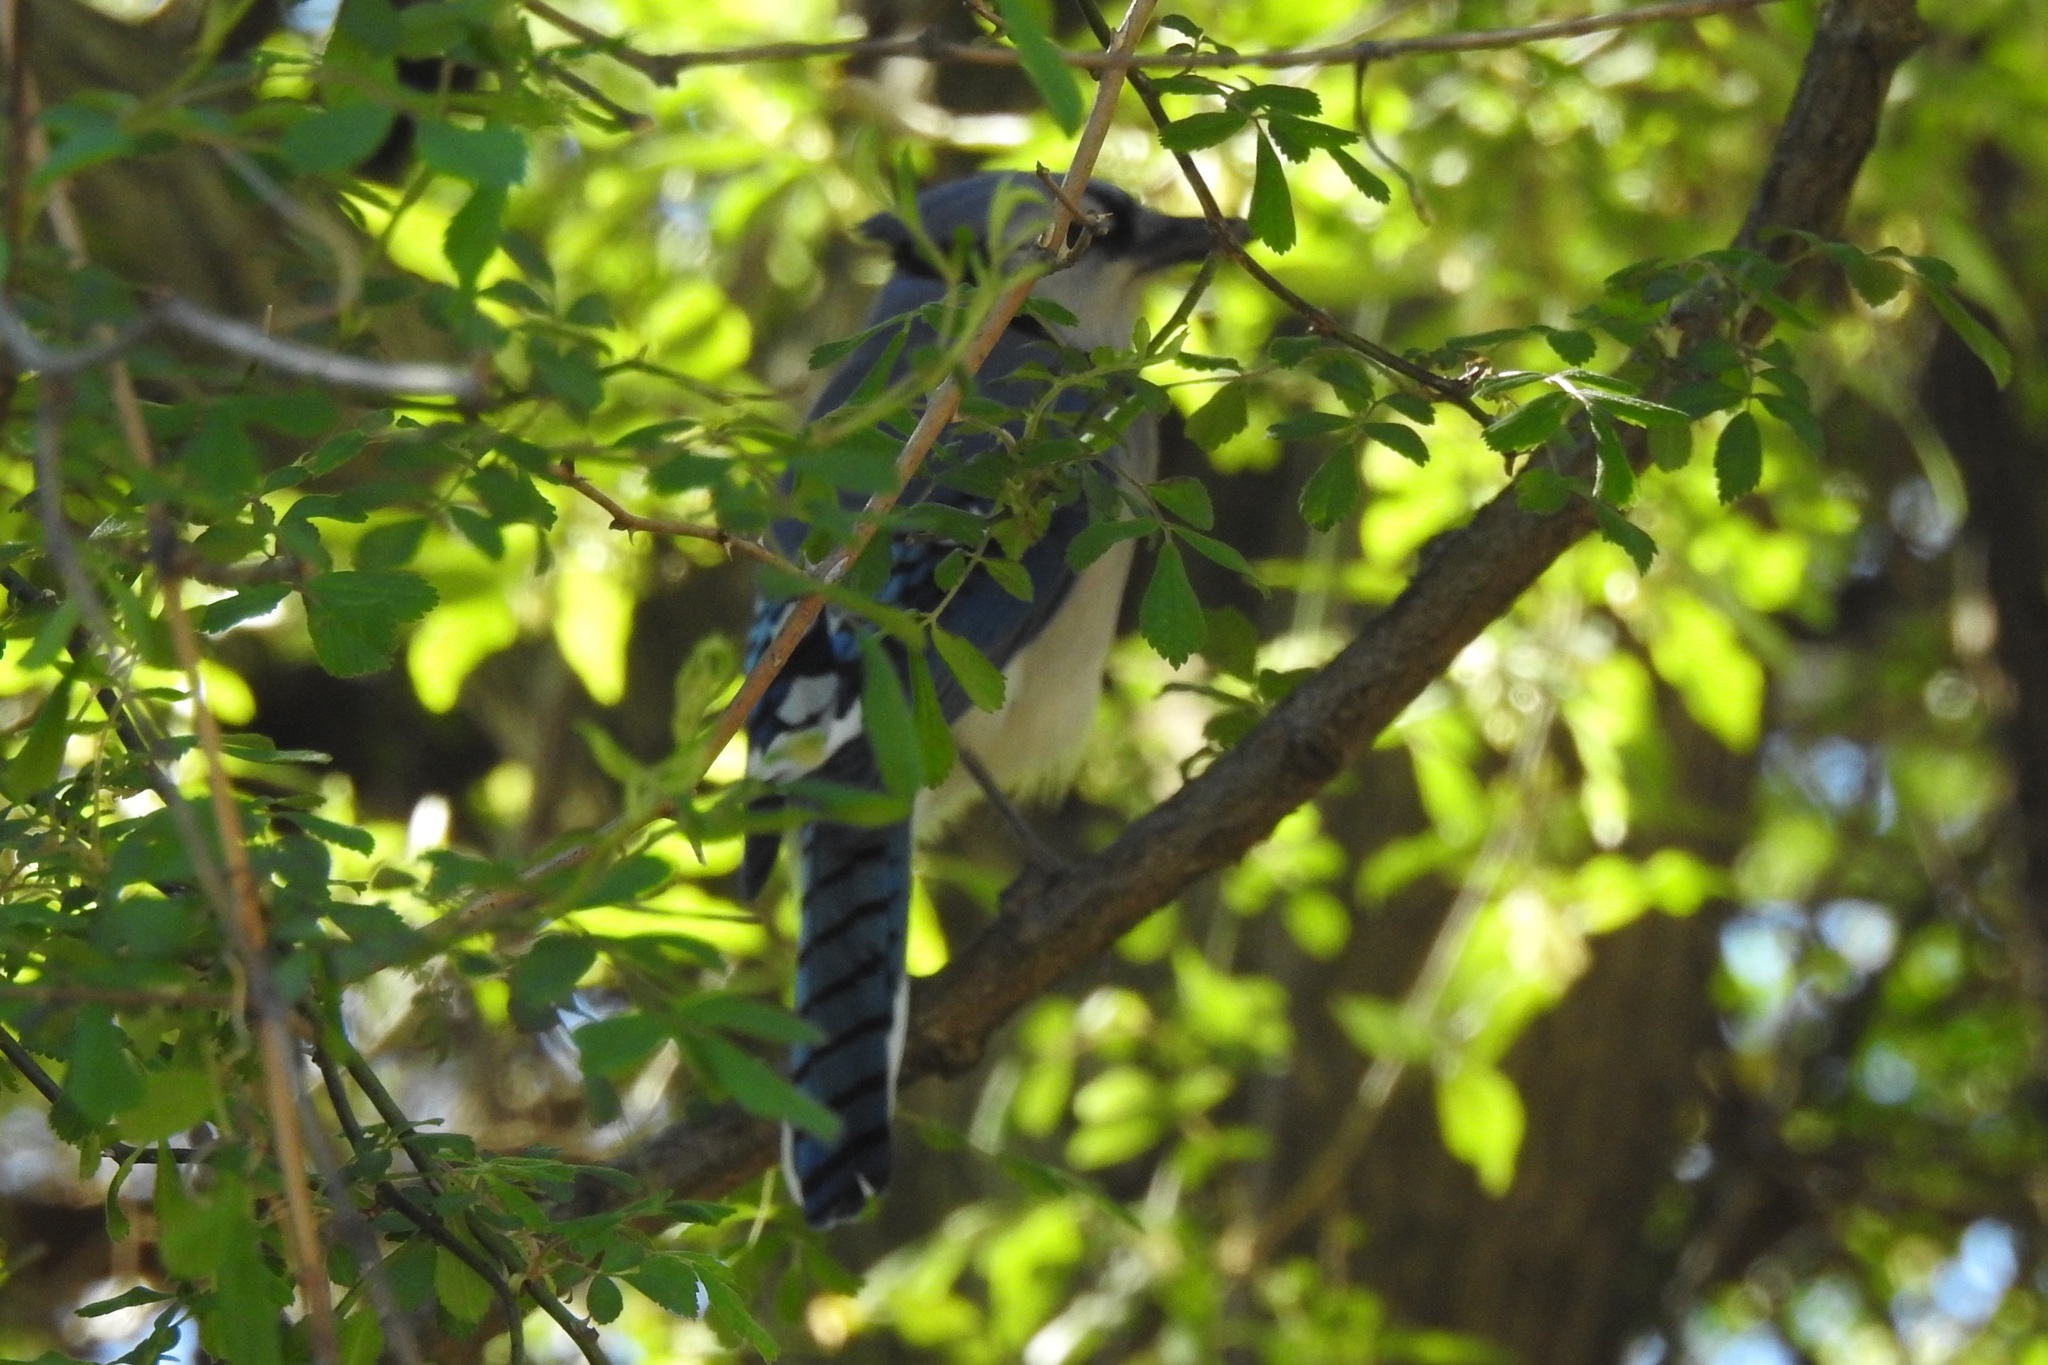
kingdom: Animalia
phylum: Chordata
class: Aves
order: Passeriformes
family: Corvidae
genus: Cyanocitta
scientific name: Cyanocitta cristata
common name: Blue jay
